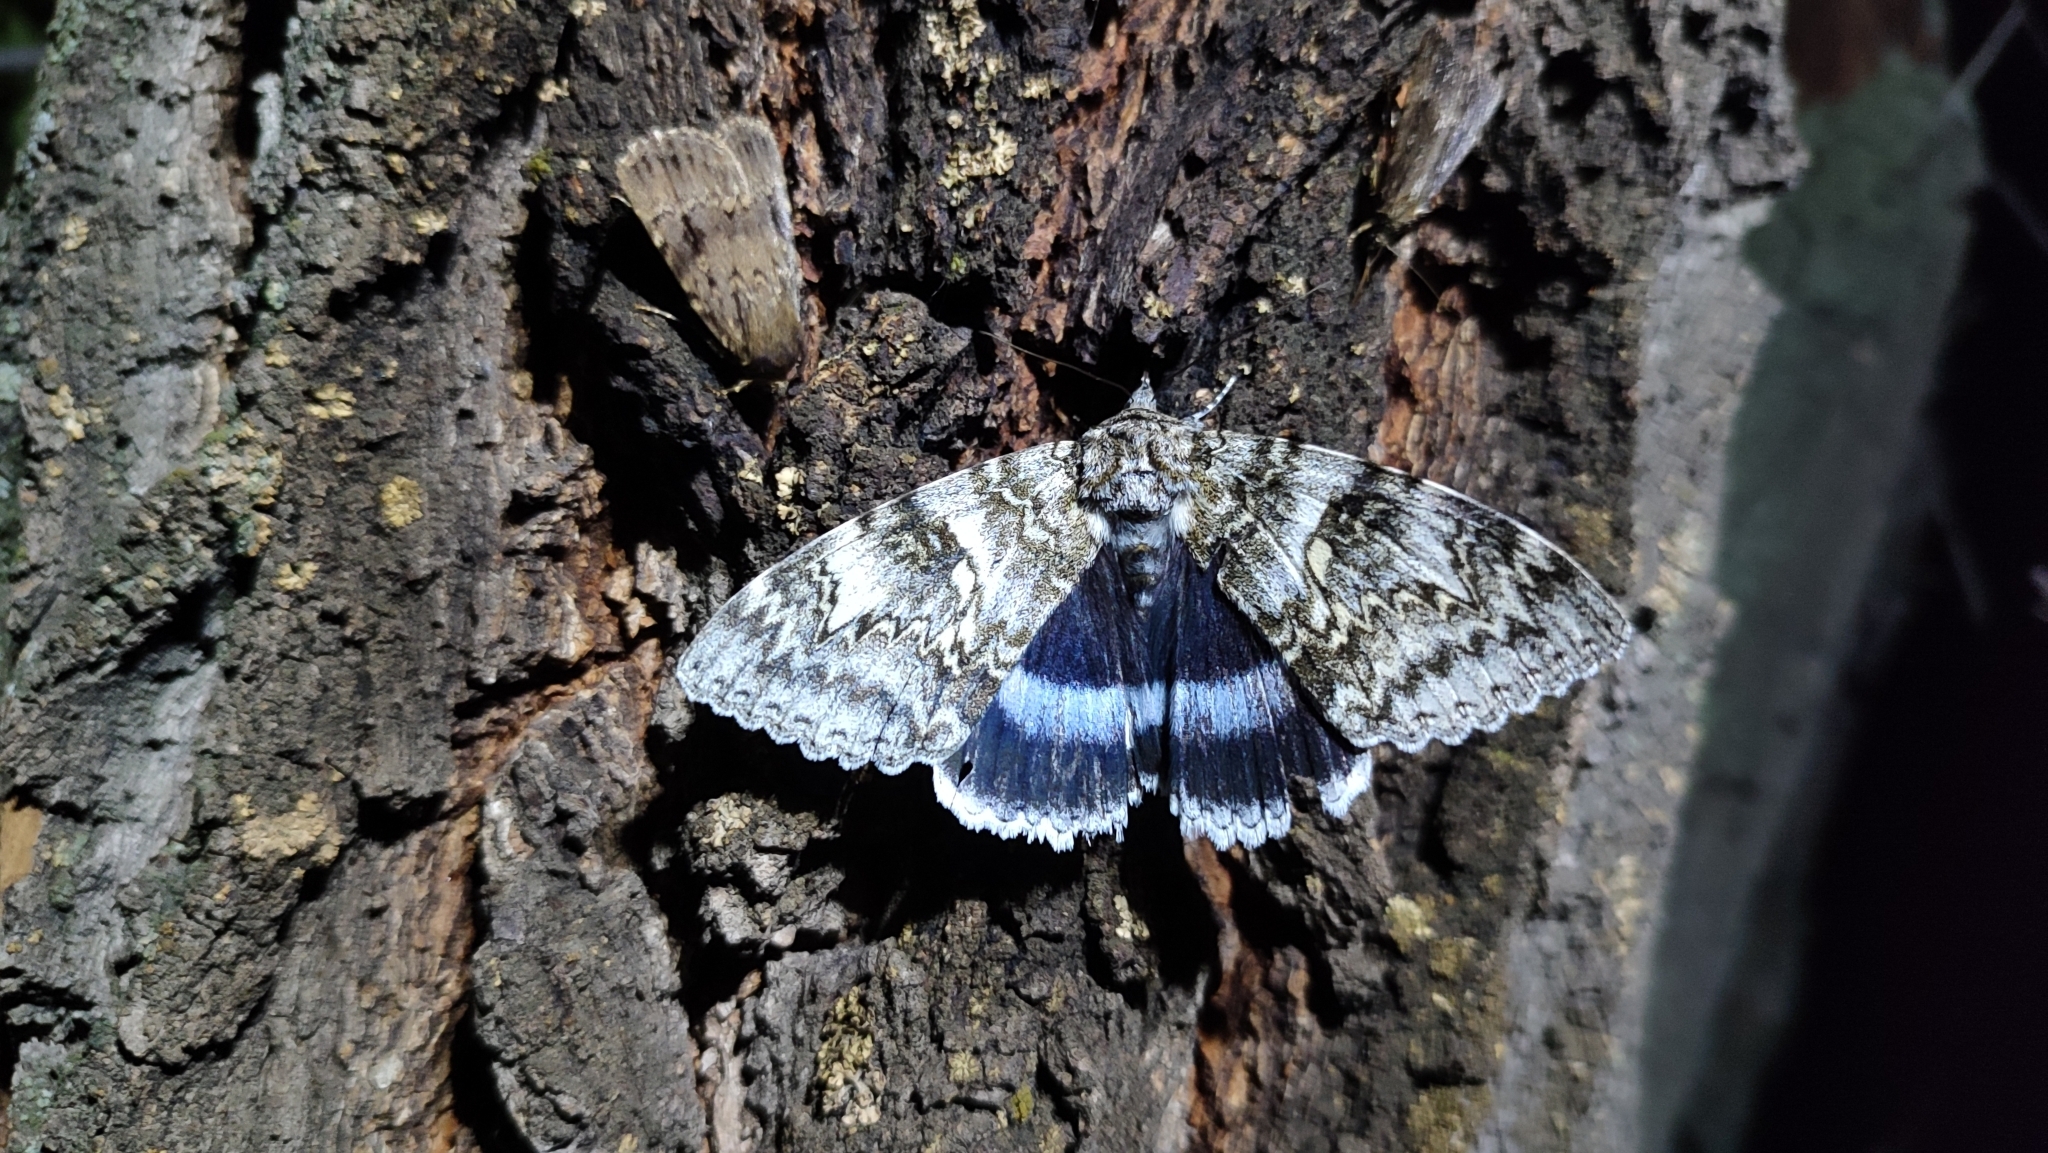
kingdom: Animalia
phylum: Arthropoda
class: Insecta
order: Lepidoptera
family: Erebidae
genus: Catocala
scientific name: Catocala fraxini
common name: Clifden nonpareil
